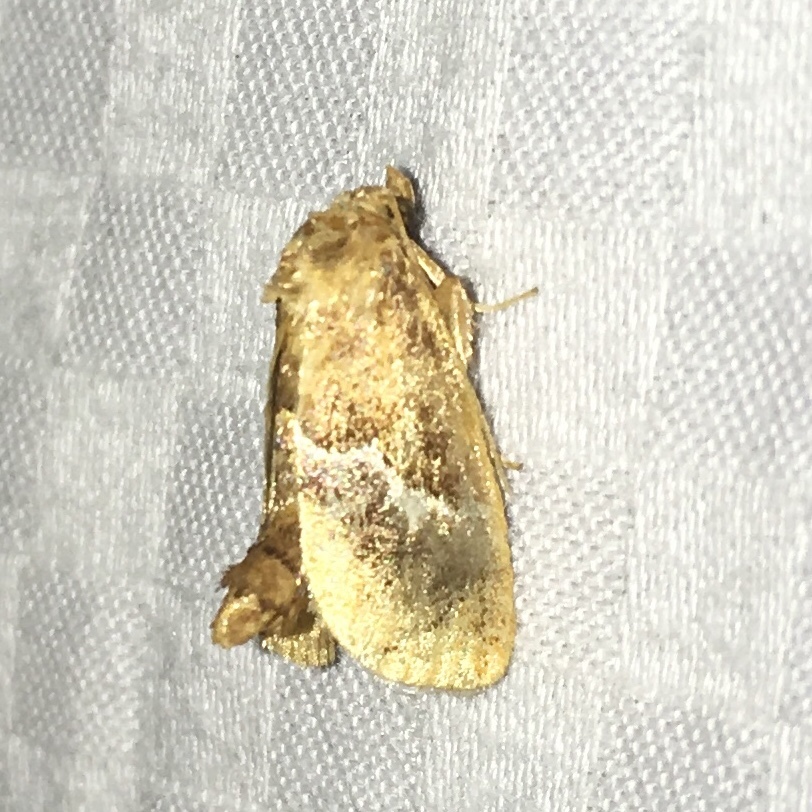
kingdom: Animalia
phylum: Arthropoda
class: Insecta
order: Lepidoptera
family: Limacodidae
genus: Lithacodes
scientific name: Lithacodes fasciola
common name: Yellow-shouldered slug moth
